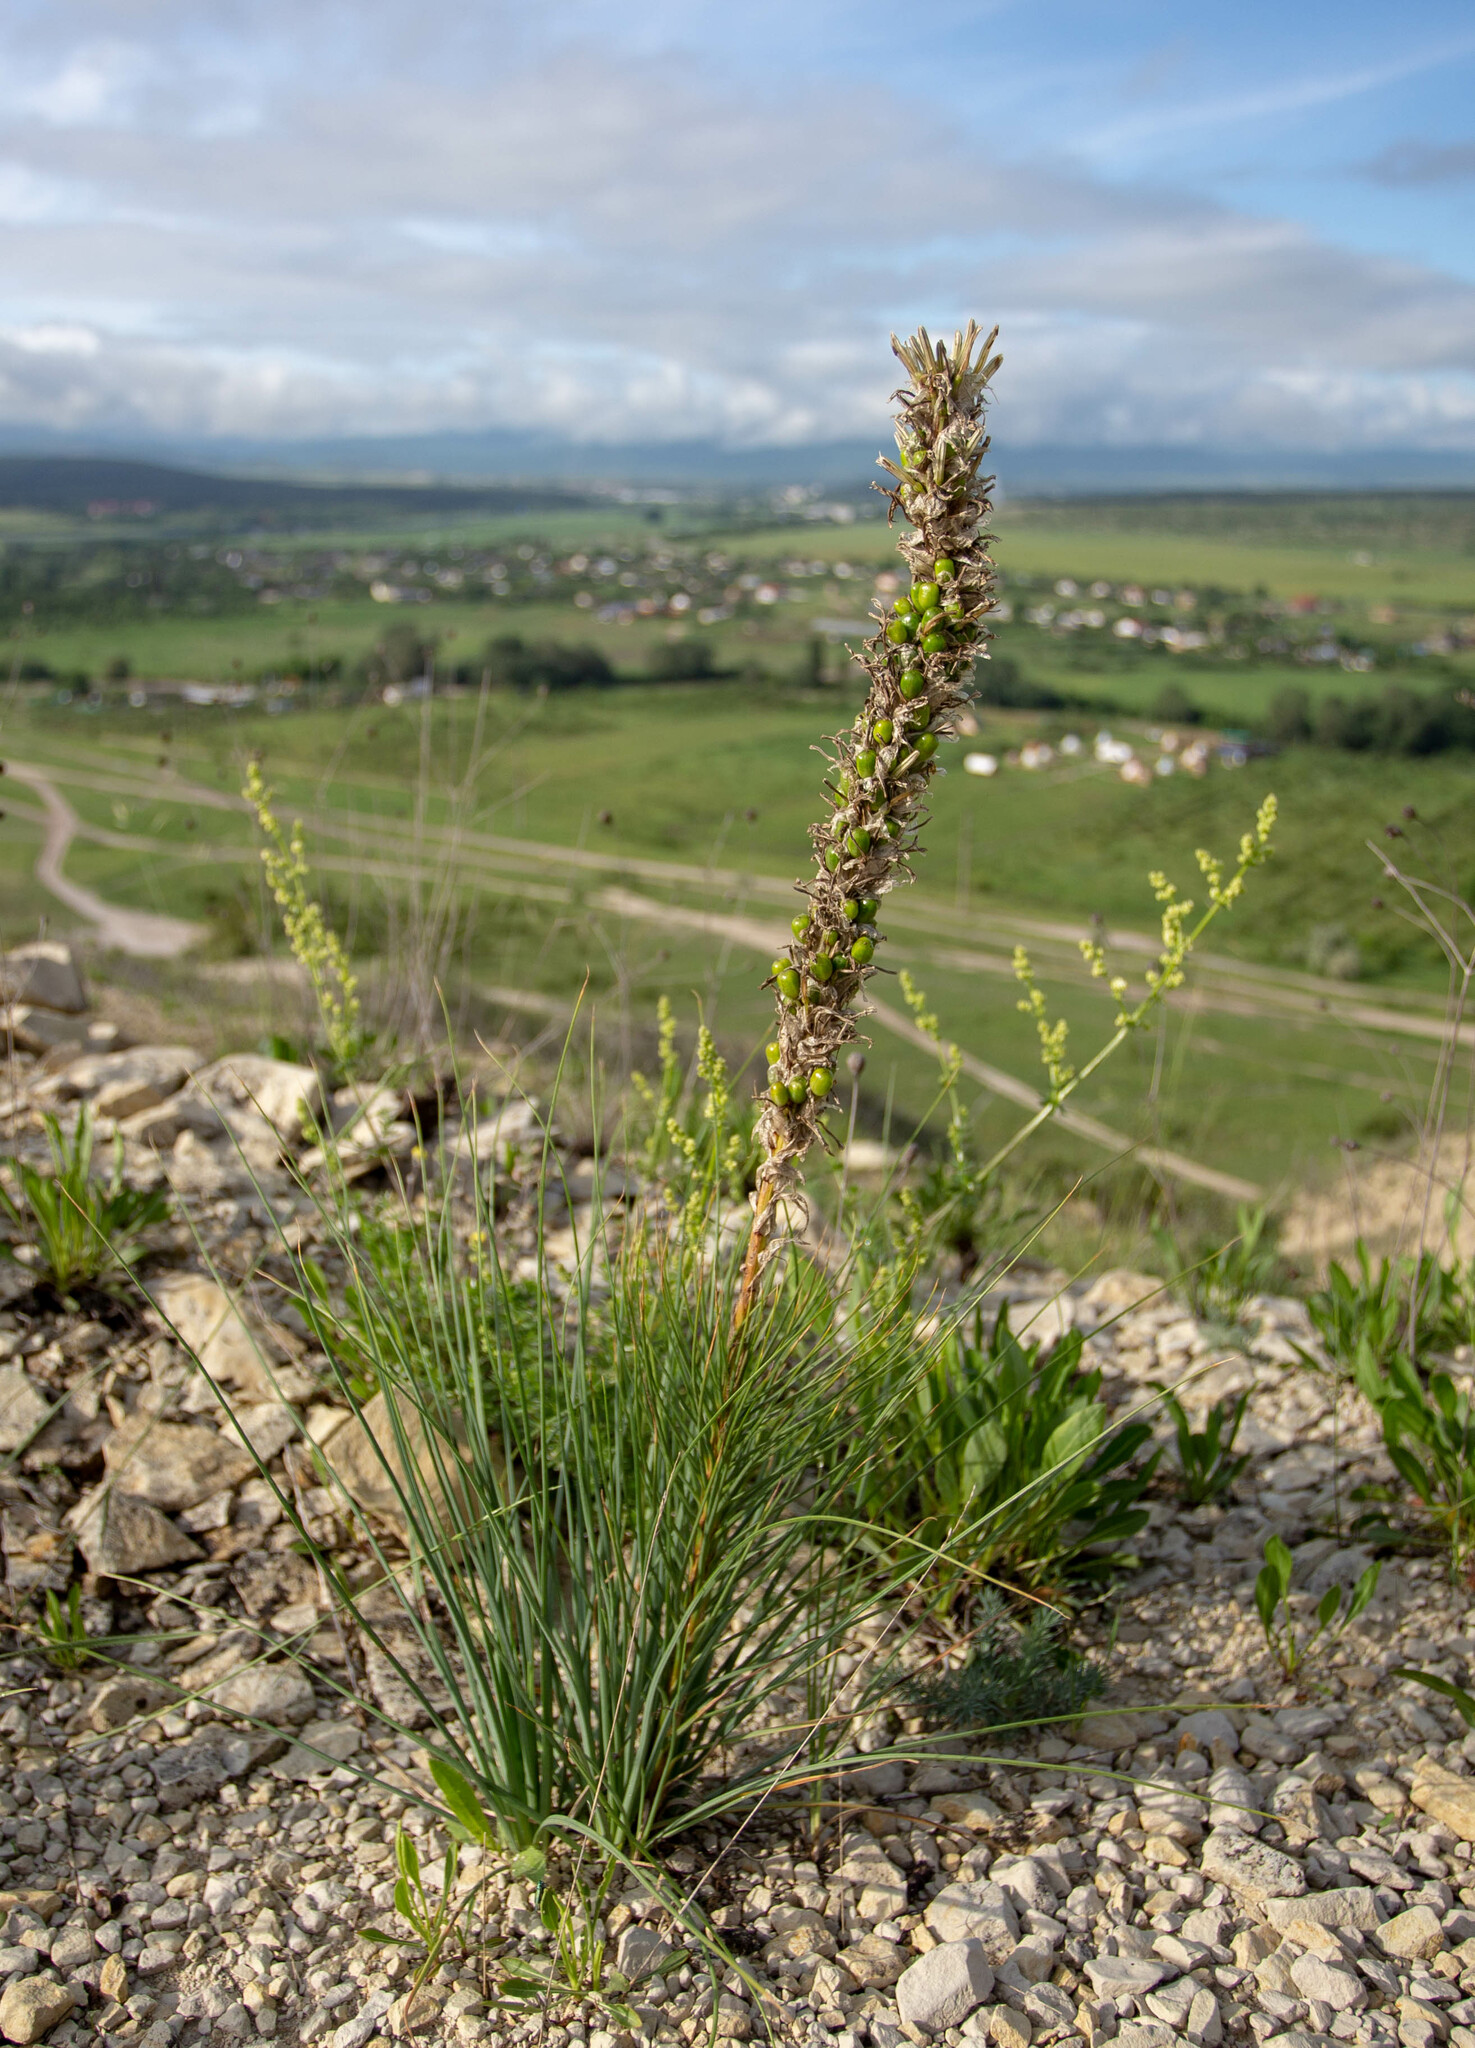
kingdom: Plantae
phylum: Tracheophyta
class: Liliopsida
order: Asparagales
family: Asphodelaceae
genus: Asphodeline
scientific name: Asphodeline taurica
